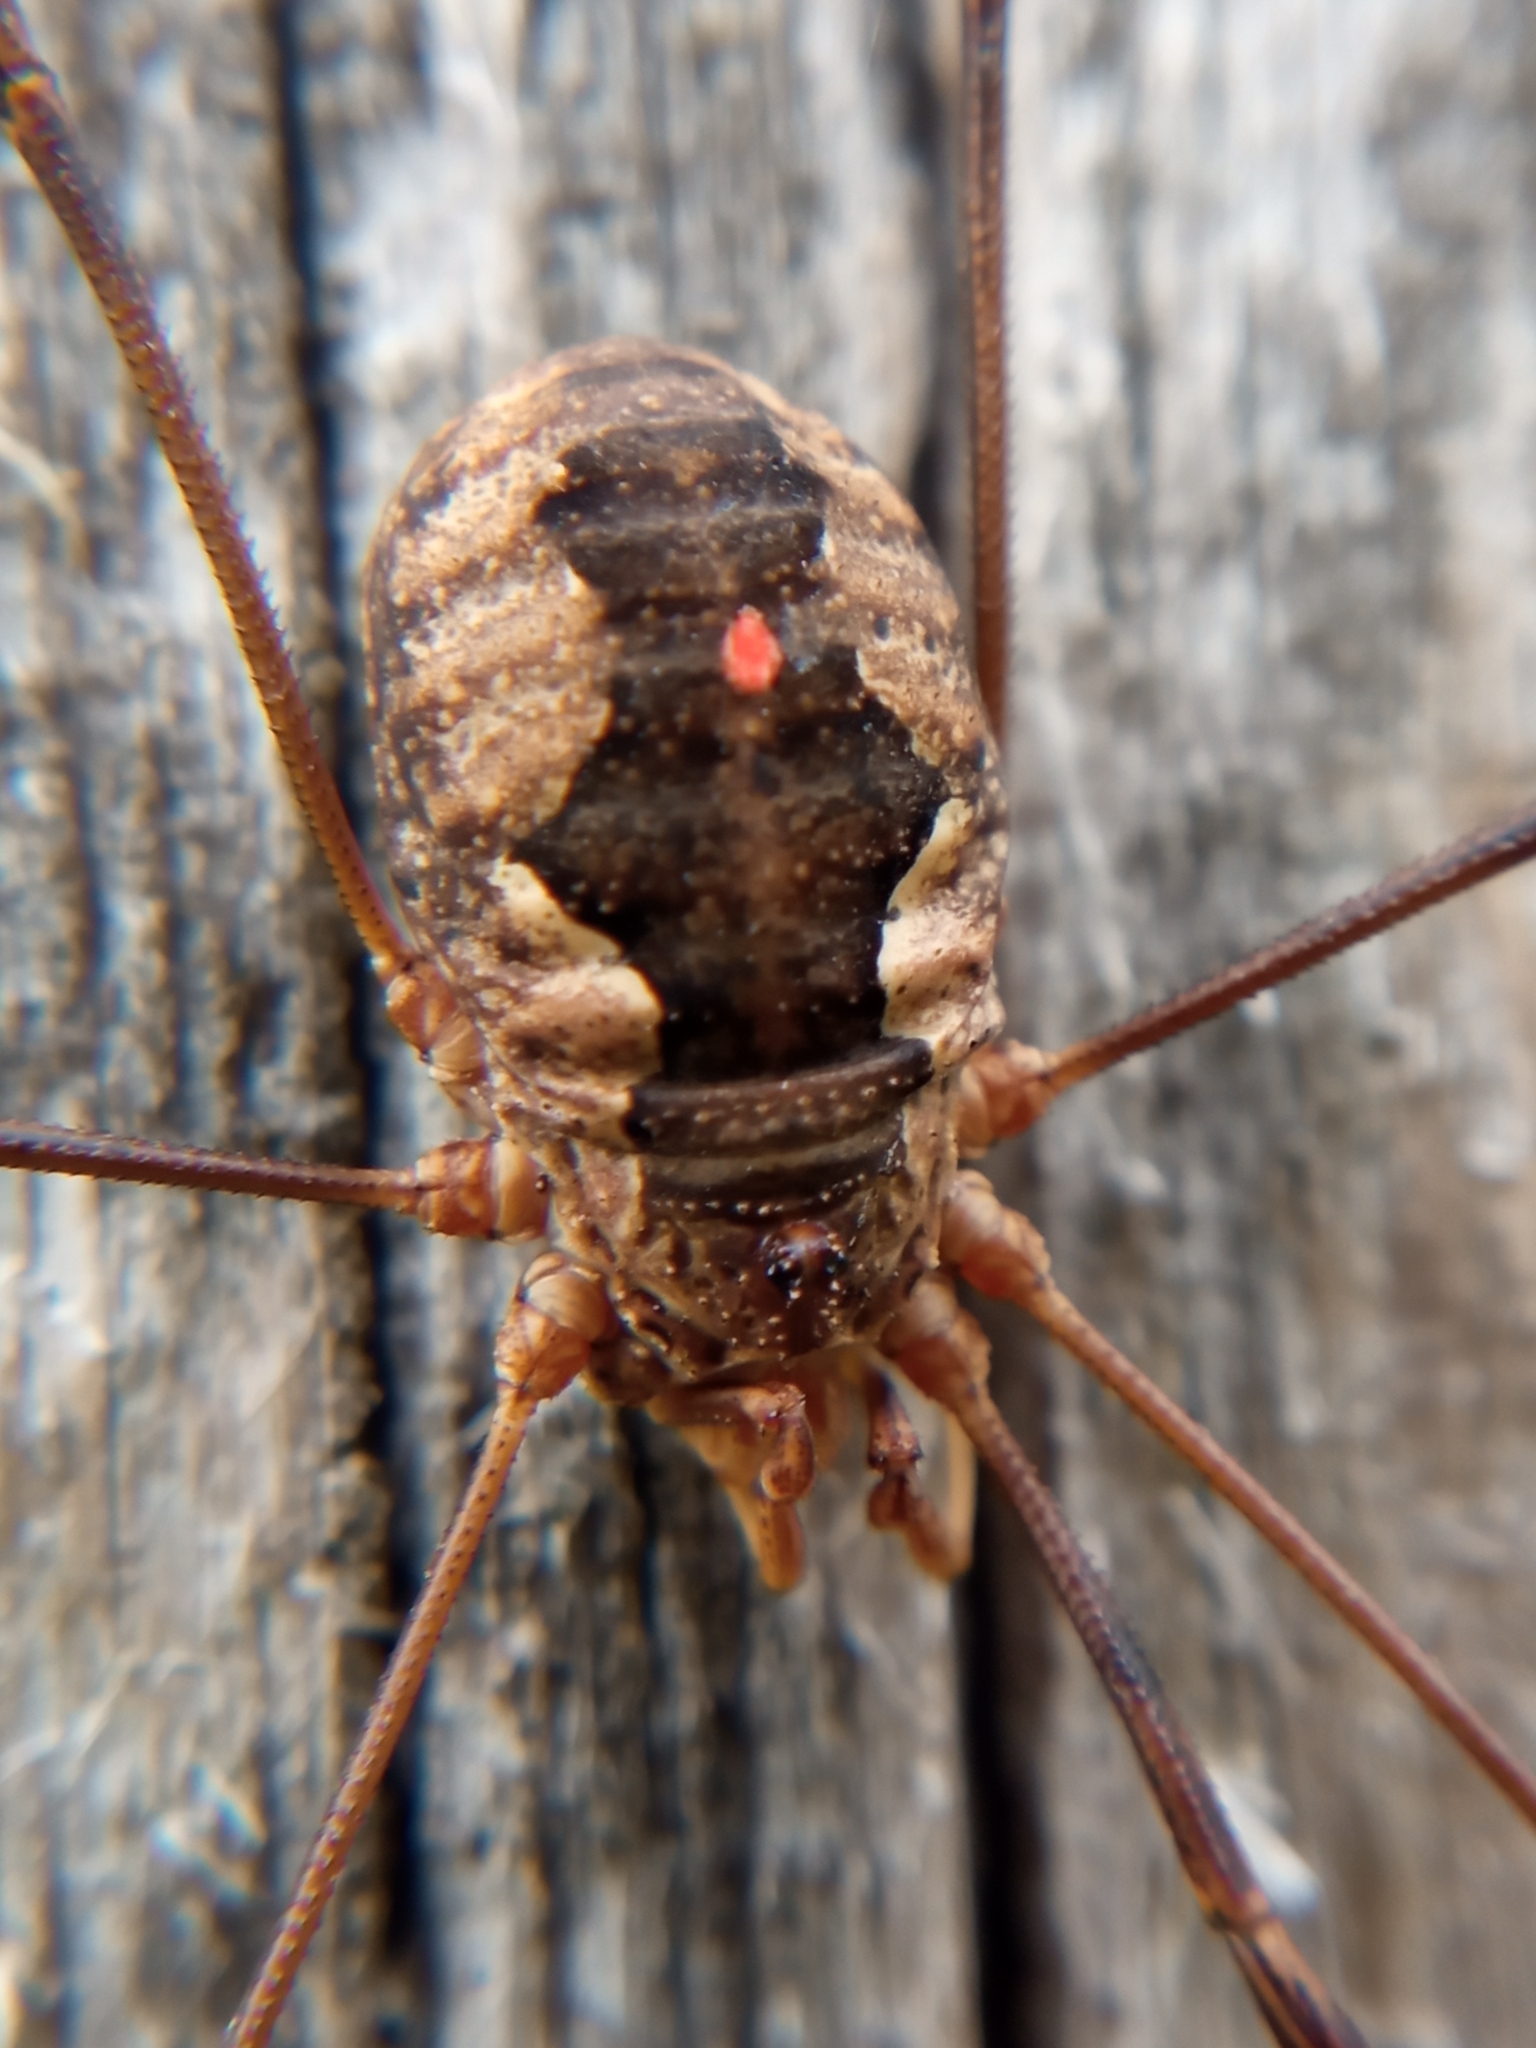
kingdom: Animalia
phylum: Arthropoda
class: Arachnida
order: Opiliones
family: Phalangiidae
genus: Phalangium
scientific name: Phalangium opilio
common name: Daddy longleg
